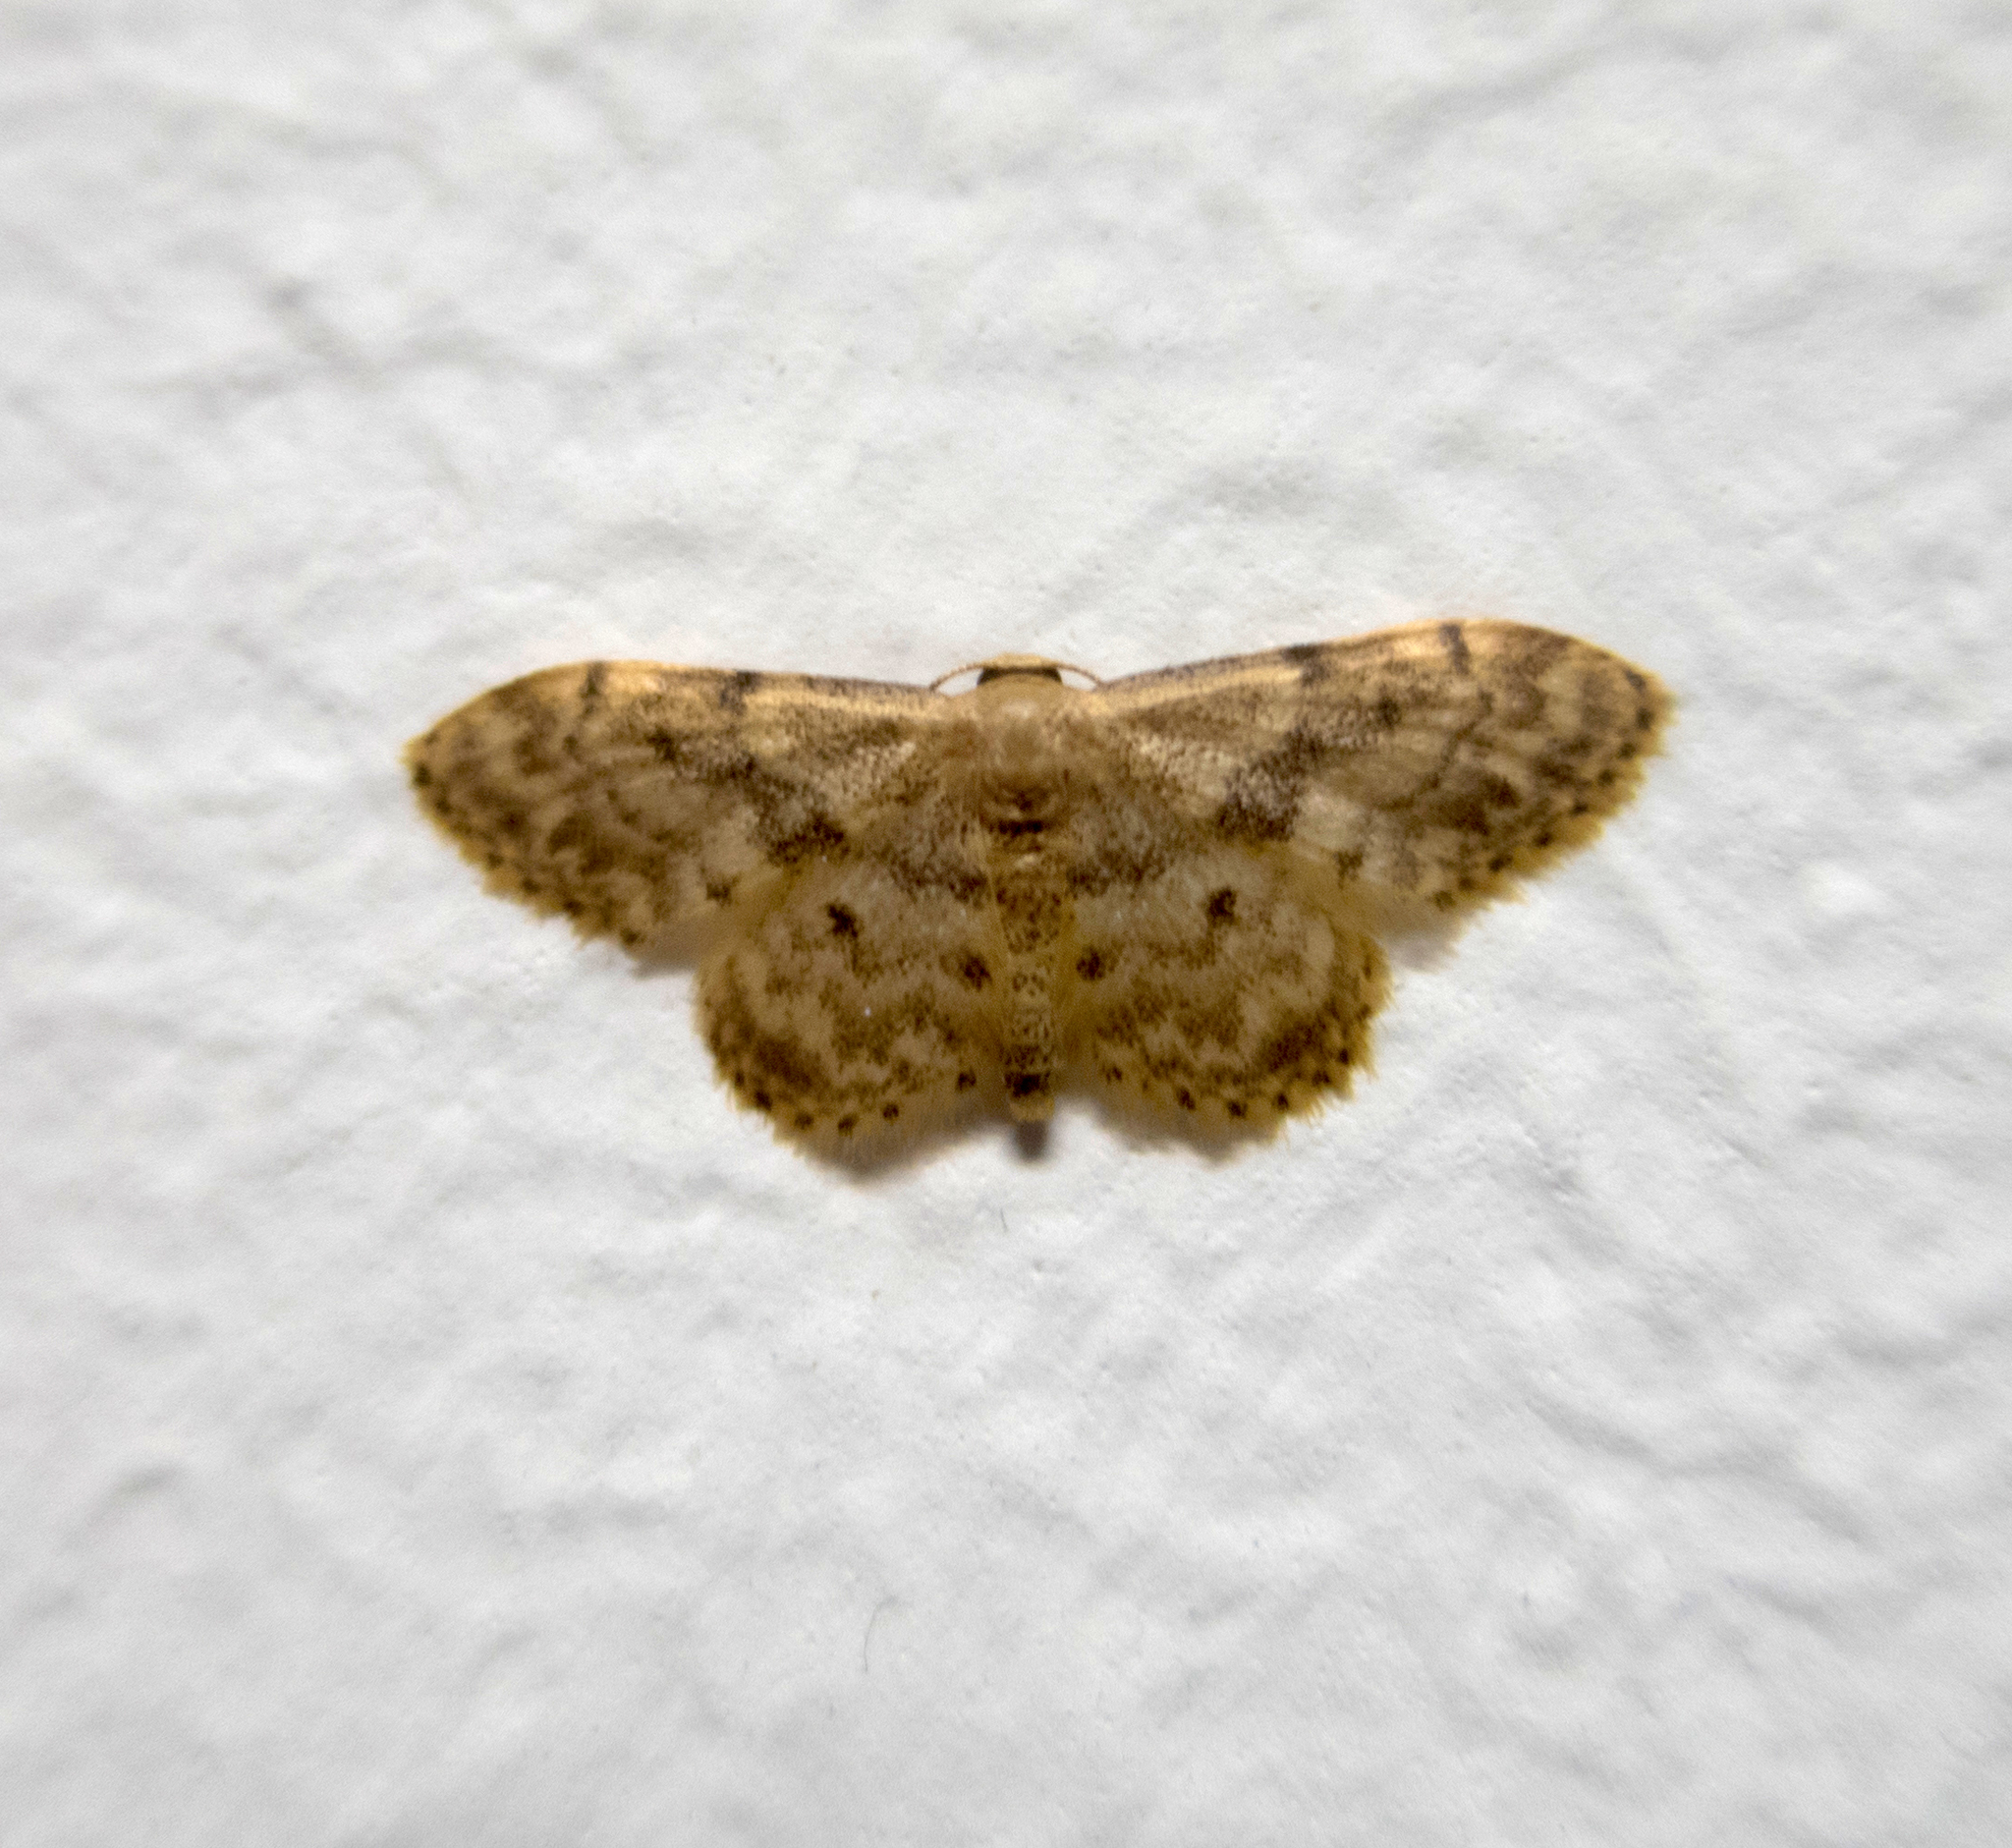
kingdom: Animalia
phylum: Arthropoda
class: Insecta
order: Lepidoptera
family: Geometridae
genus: Idaea
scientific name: Idaea inquinata
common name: Rusty wave
